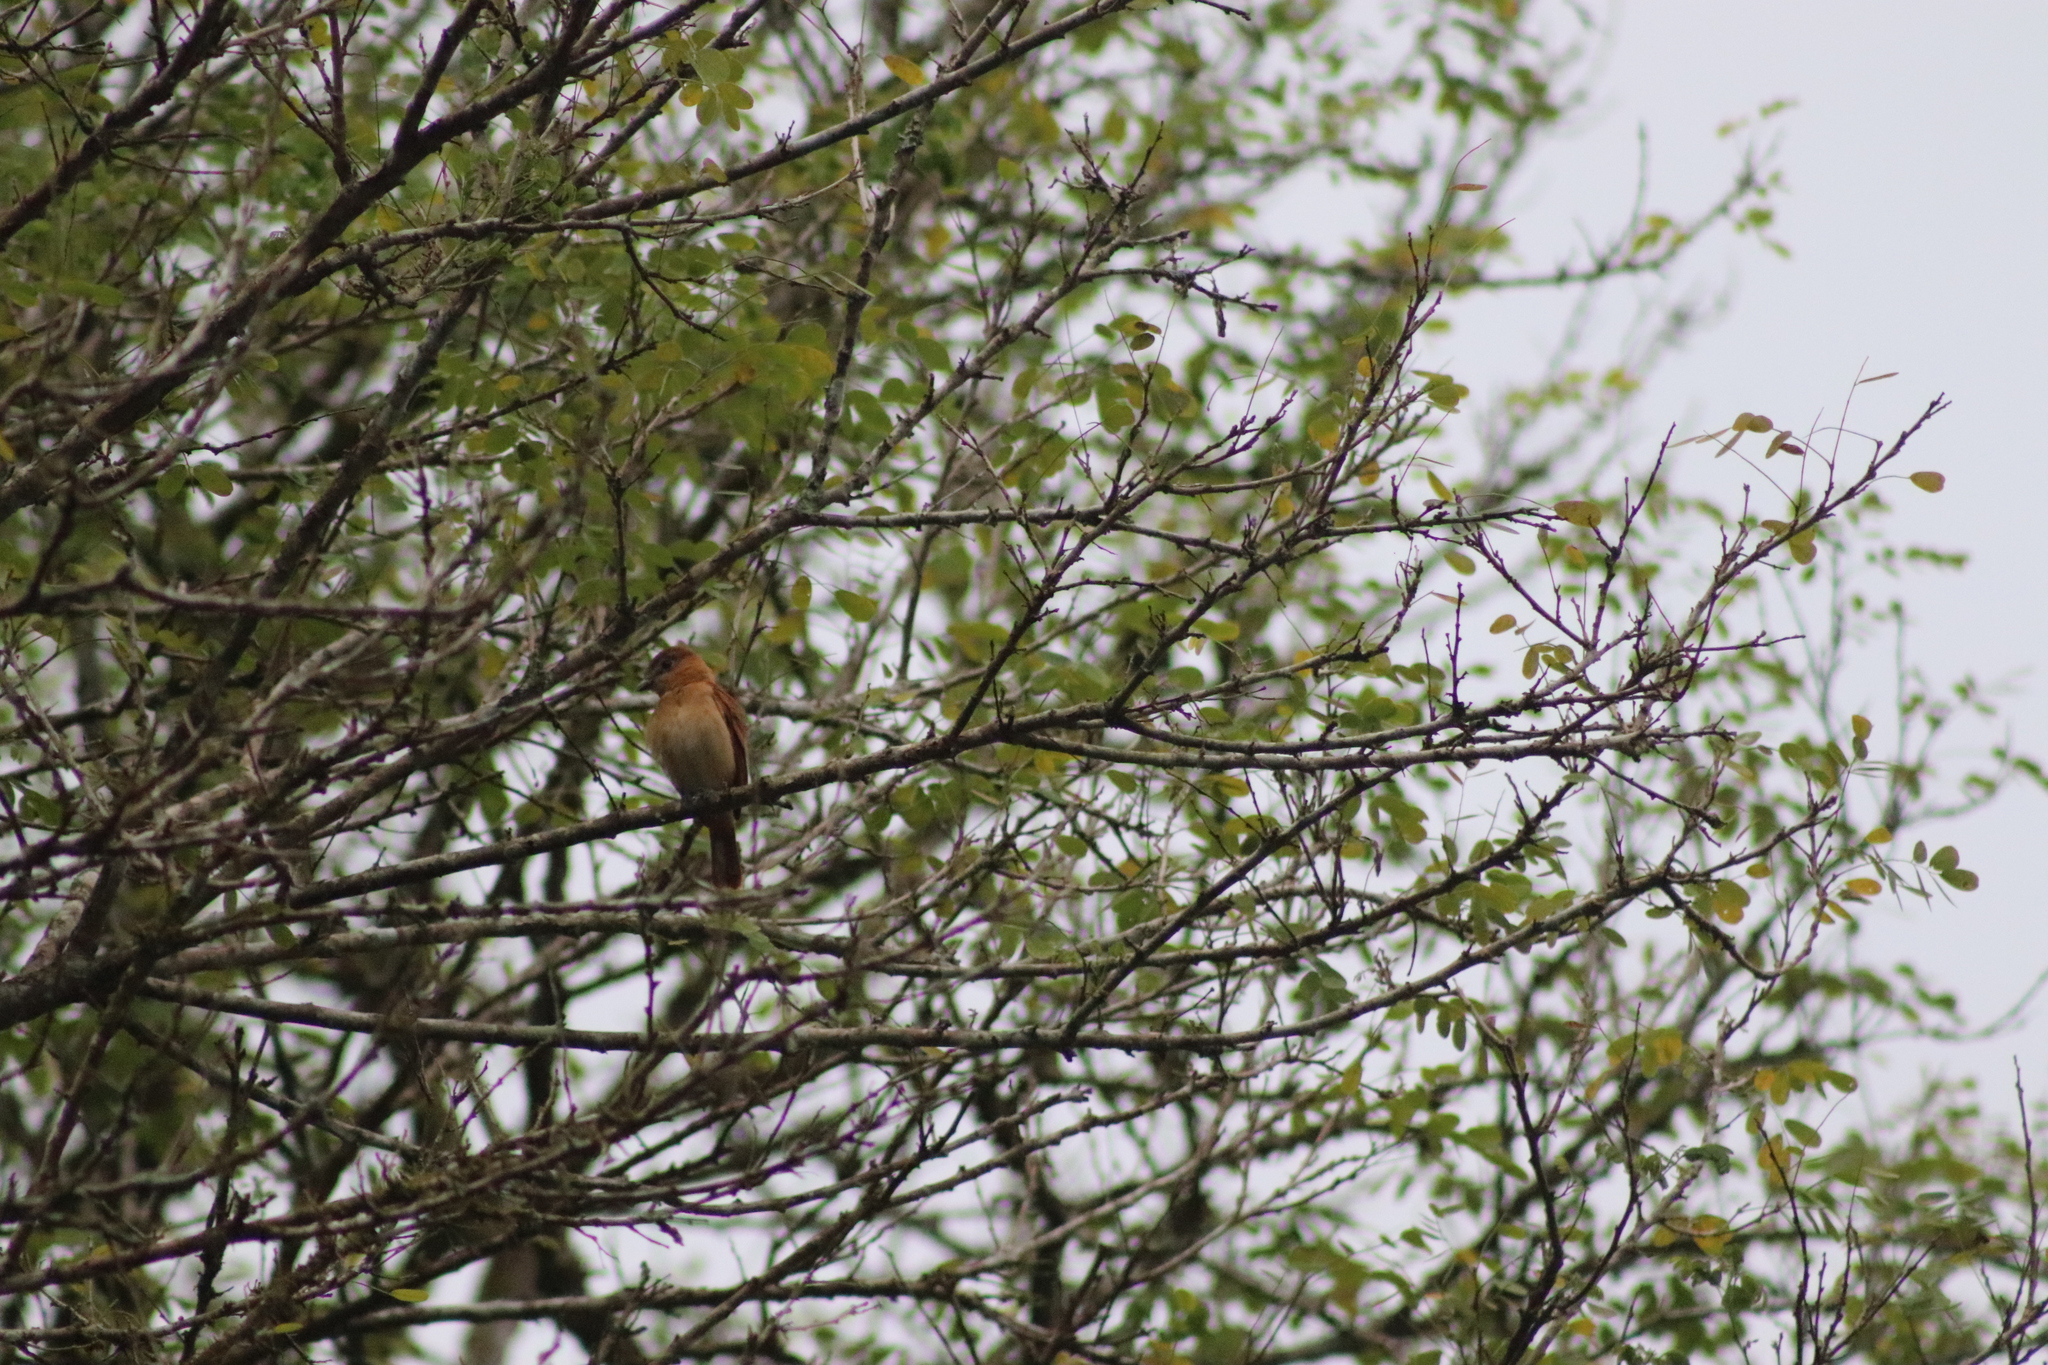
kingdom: Animalia
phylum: Chordata
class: Aves
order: Passeriformes
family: Cotingidae
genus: Pachyramphus
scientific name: Pachyramphus cinnamomeus
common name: Cinnamon becard
